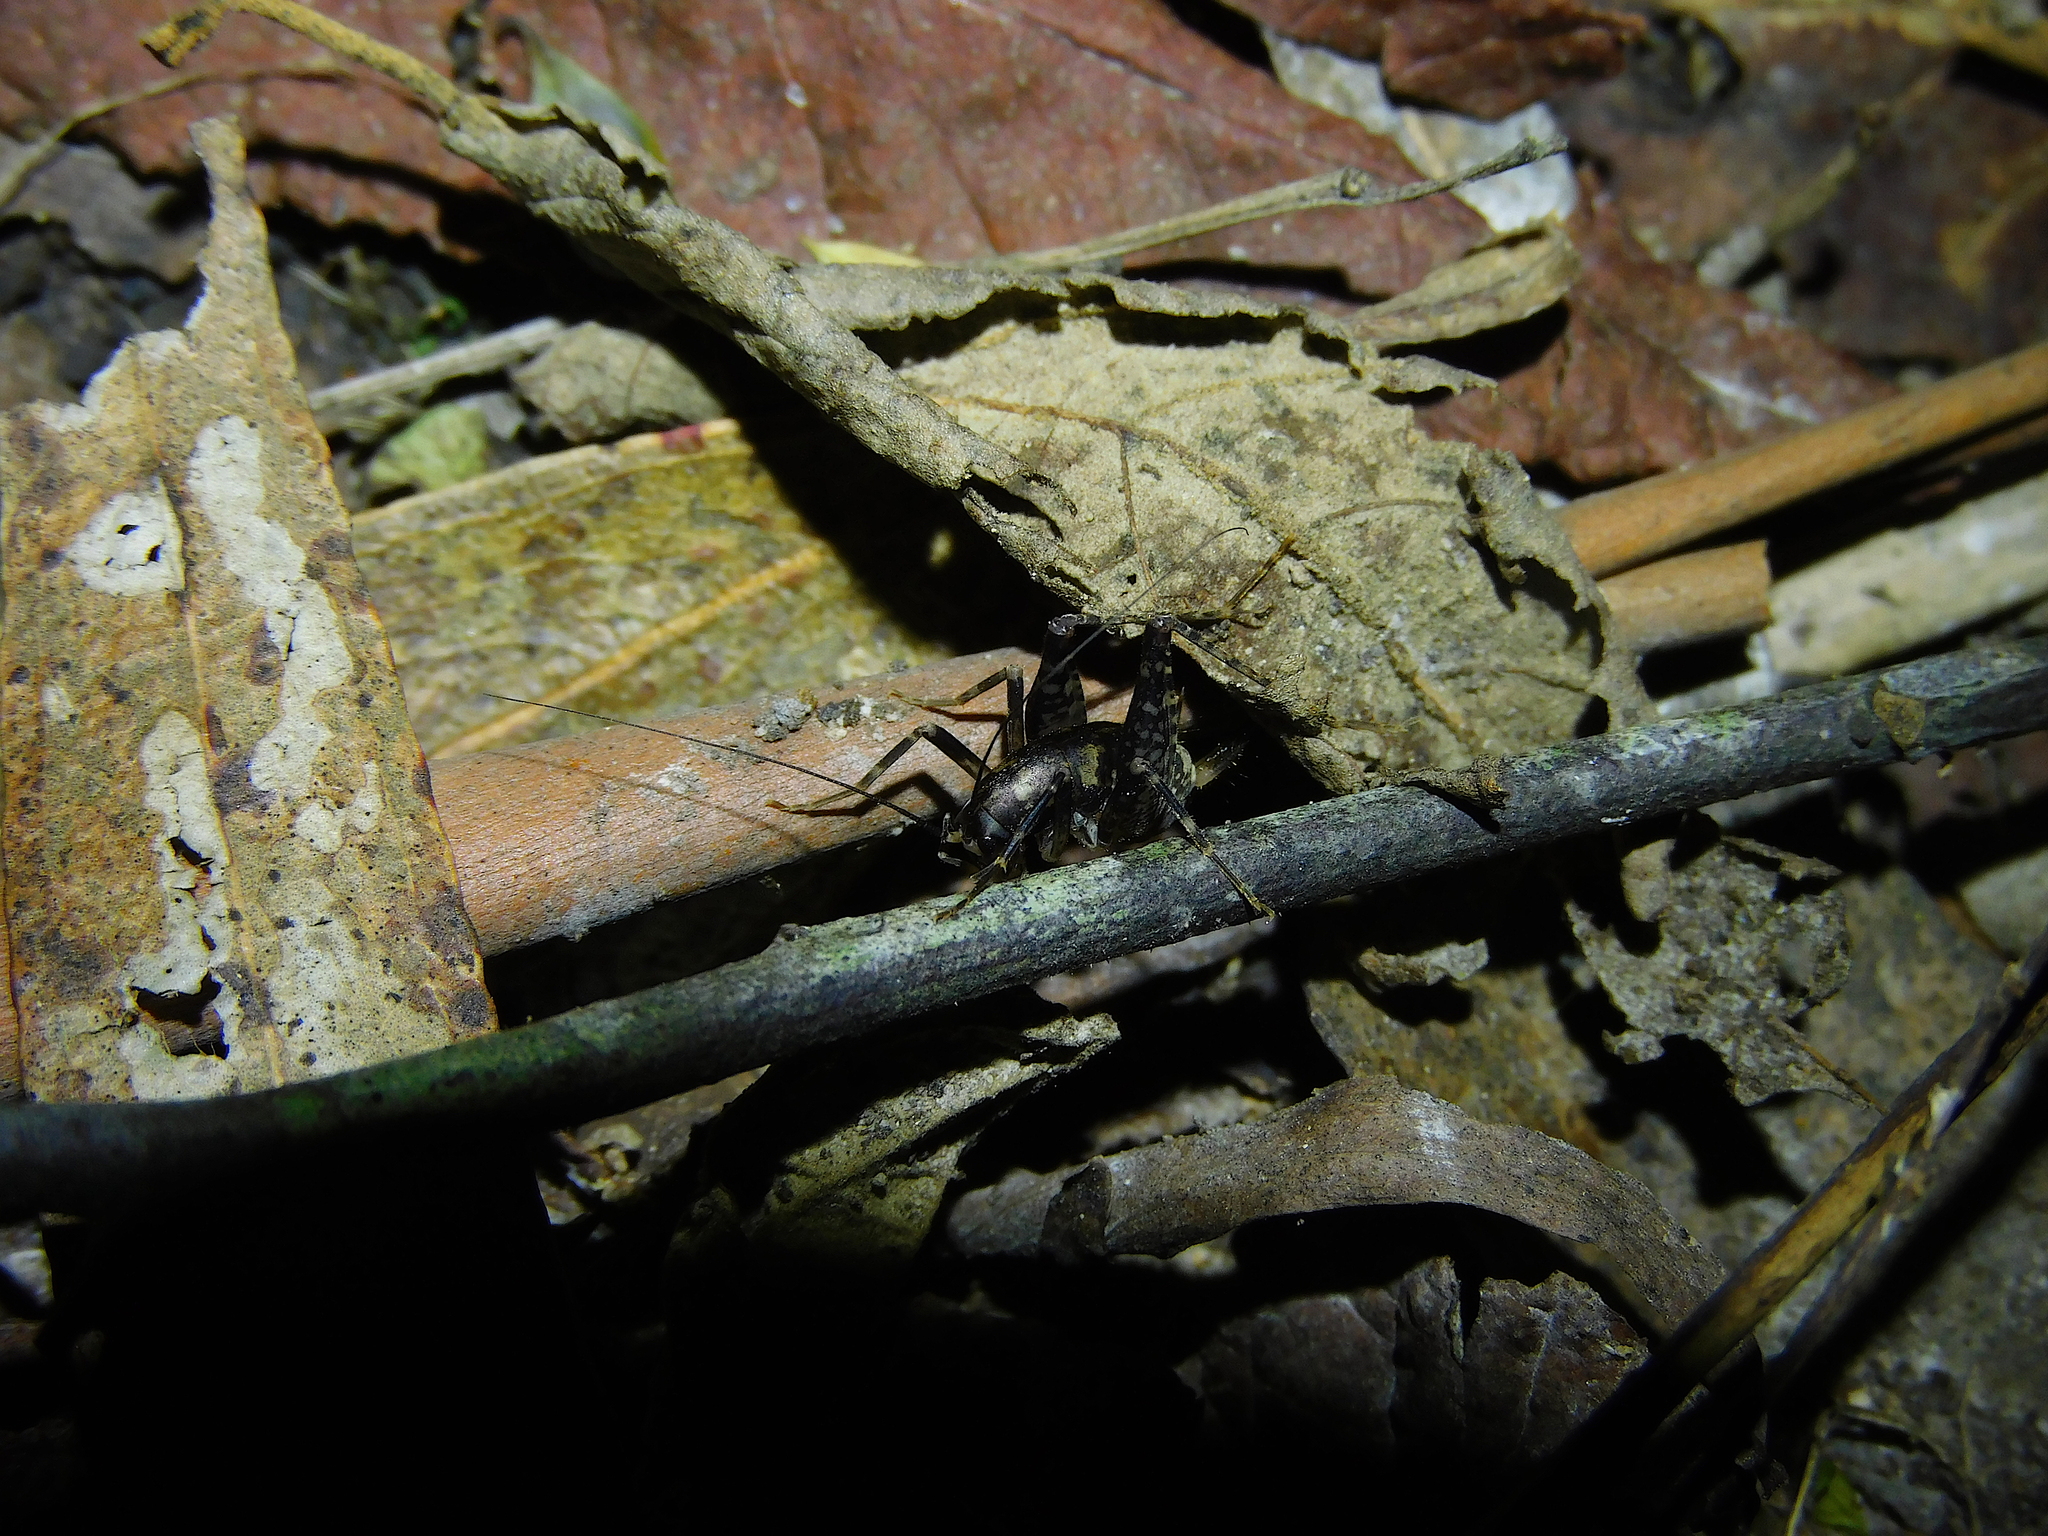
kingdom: Animalia
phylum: Arthropoda
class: Insecta
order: Orthoptera
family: Rhaphidophoridae
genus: Parvotettix
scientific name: Parvotettix domesticus
